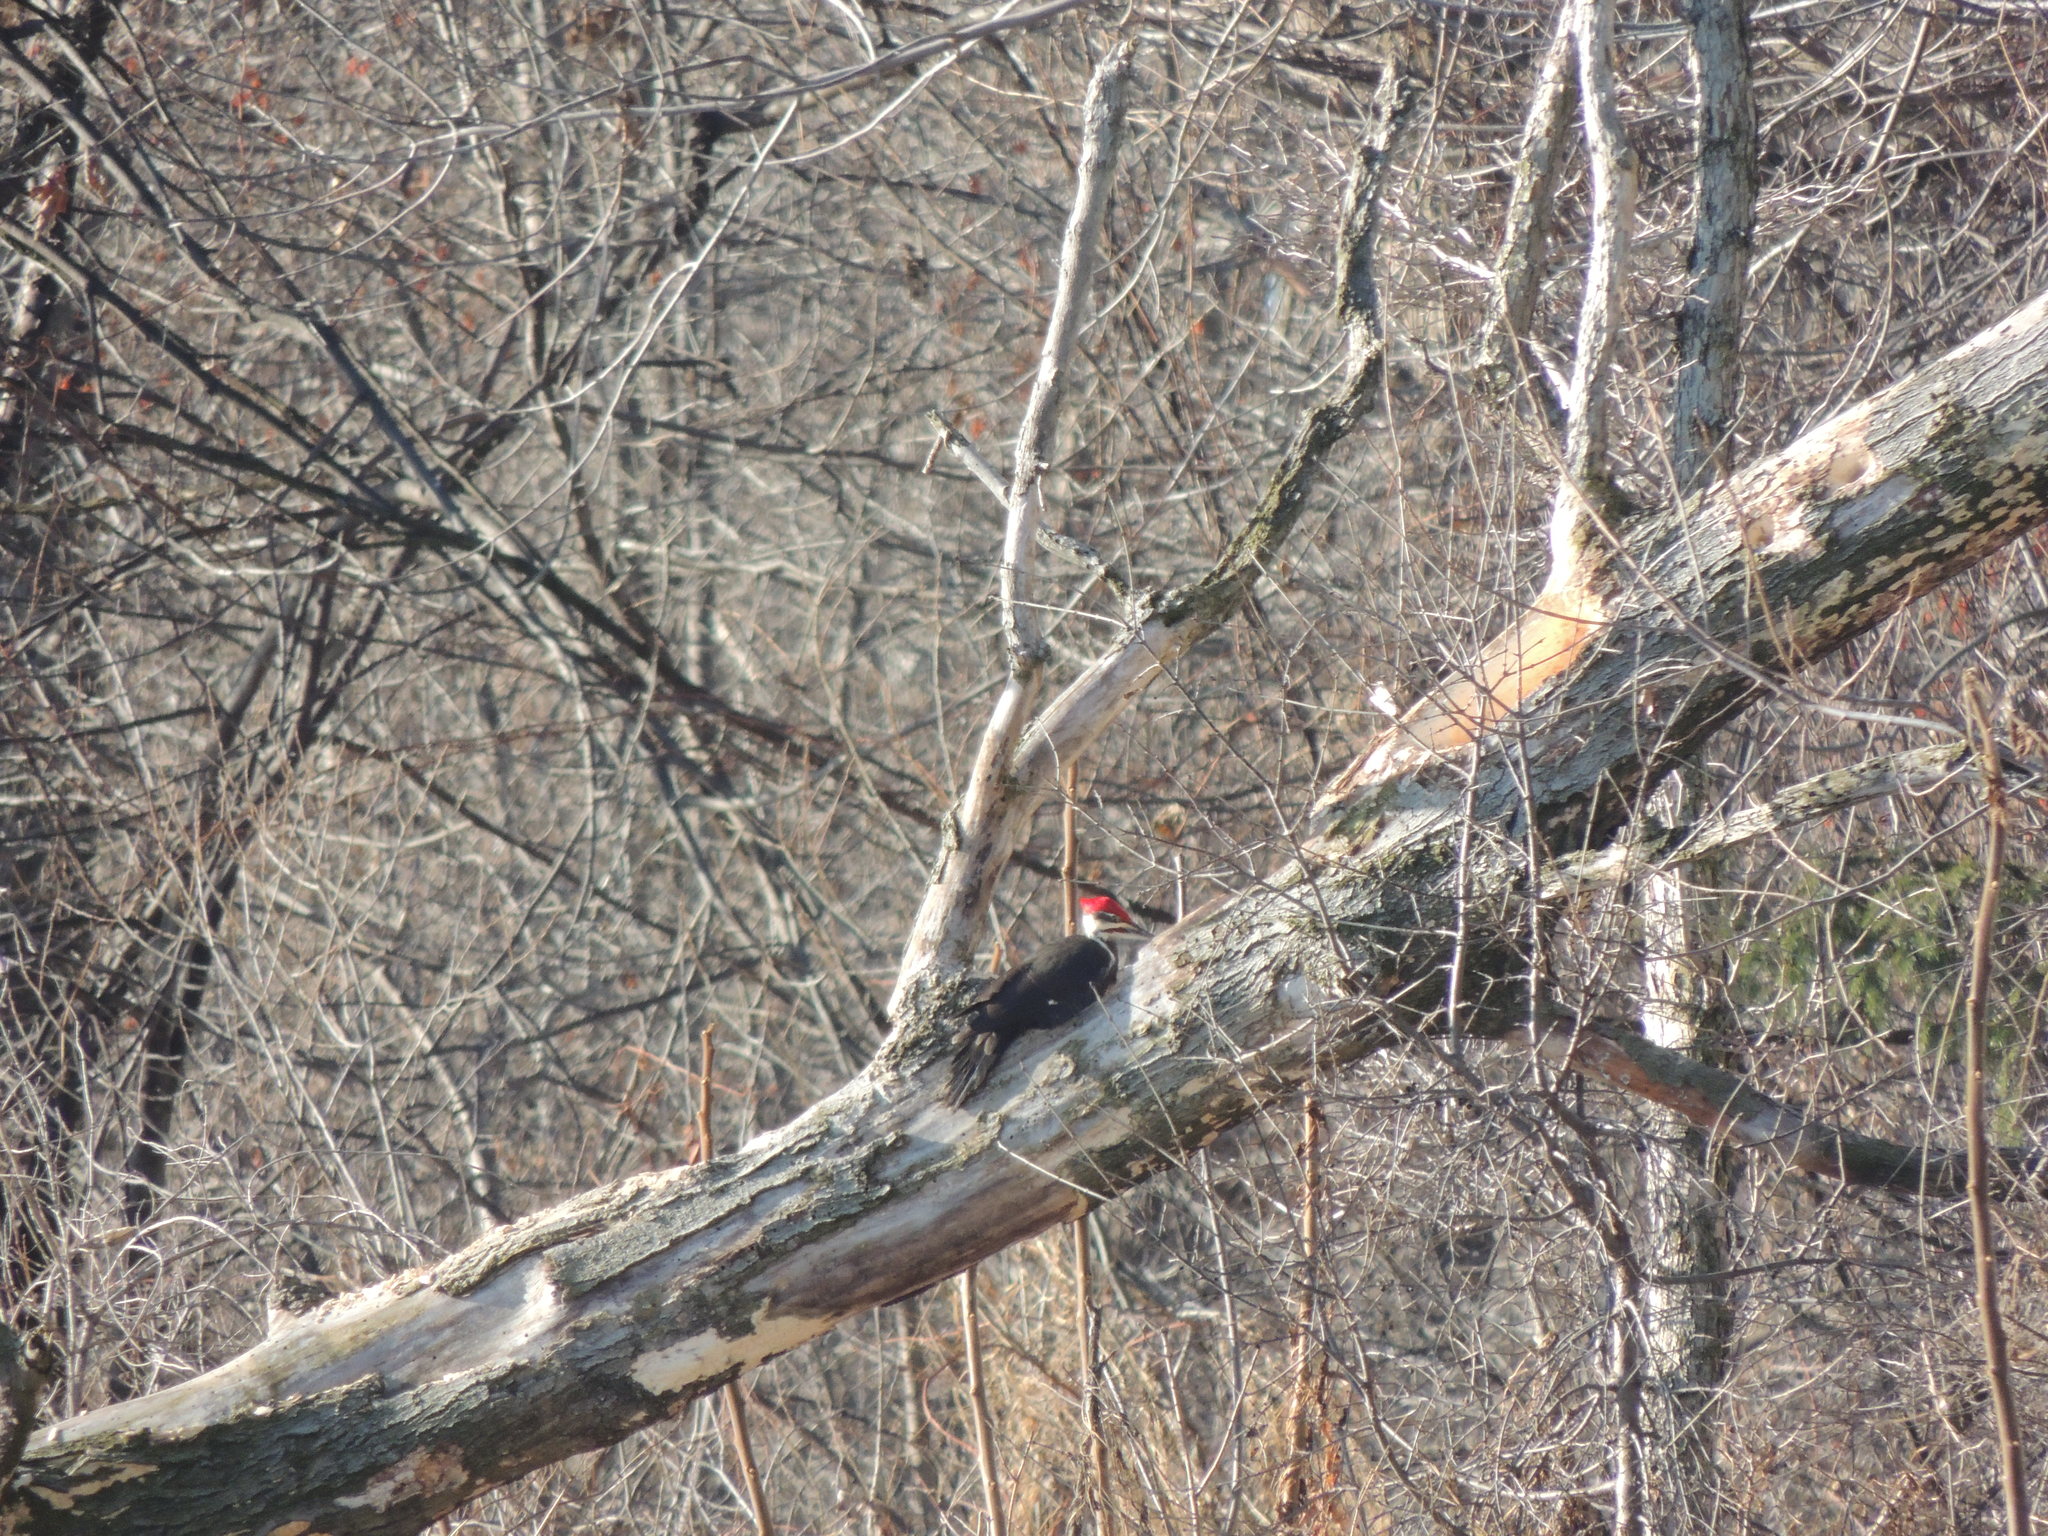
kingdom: Animalia
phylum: Chordata
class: Aves
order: Piciformes
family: Picidae
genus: Dryocopus
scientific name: Dryocopus pileatus
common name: Pileated woodpecker
